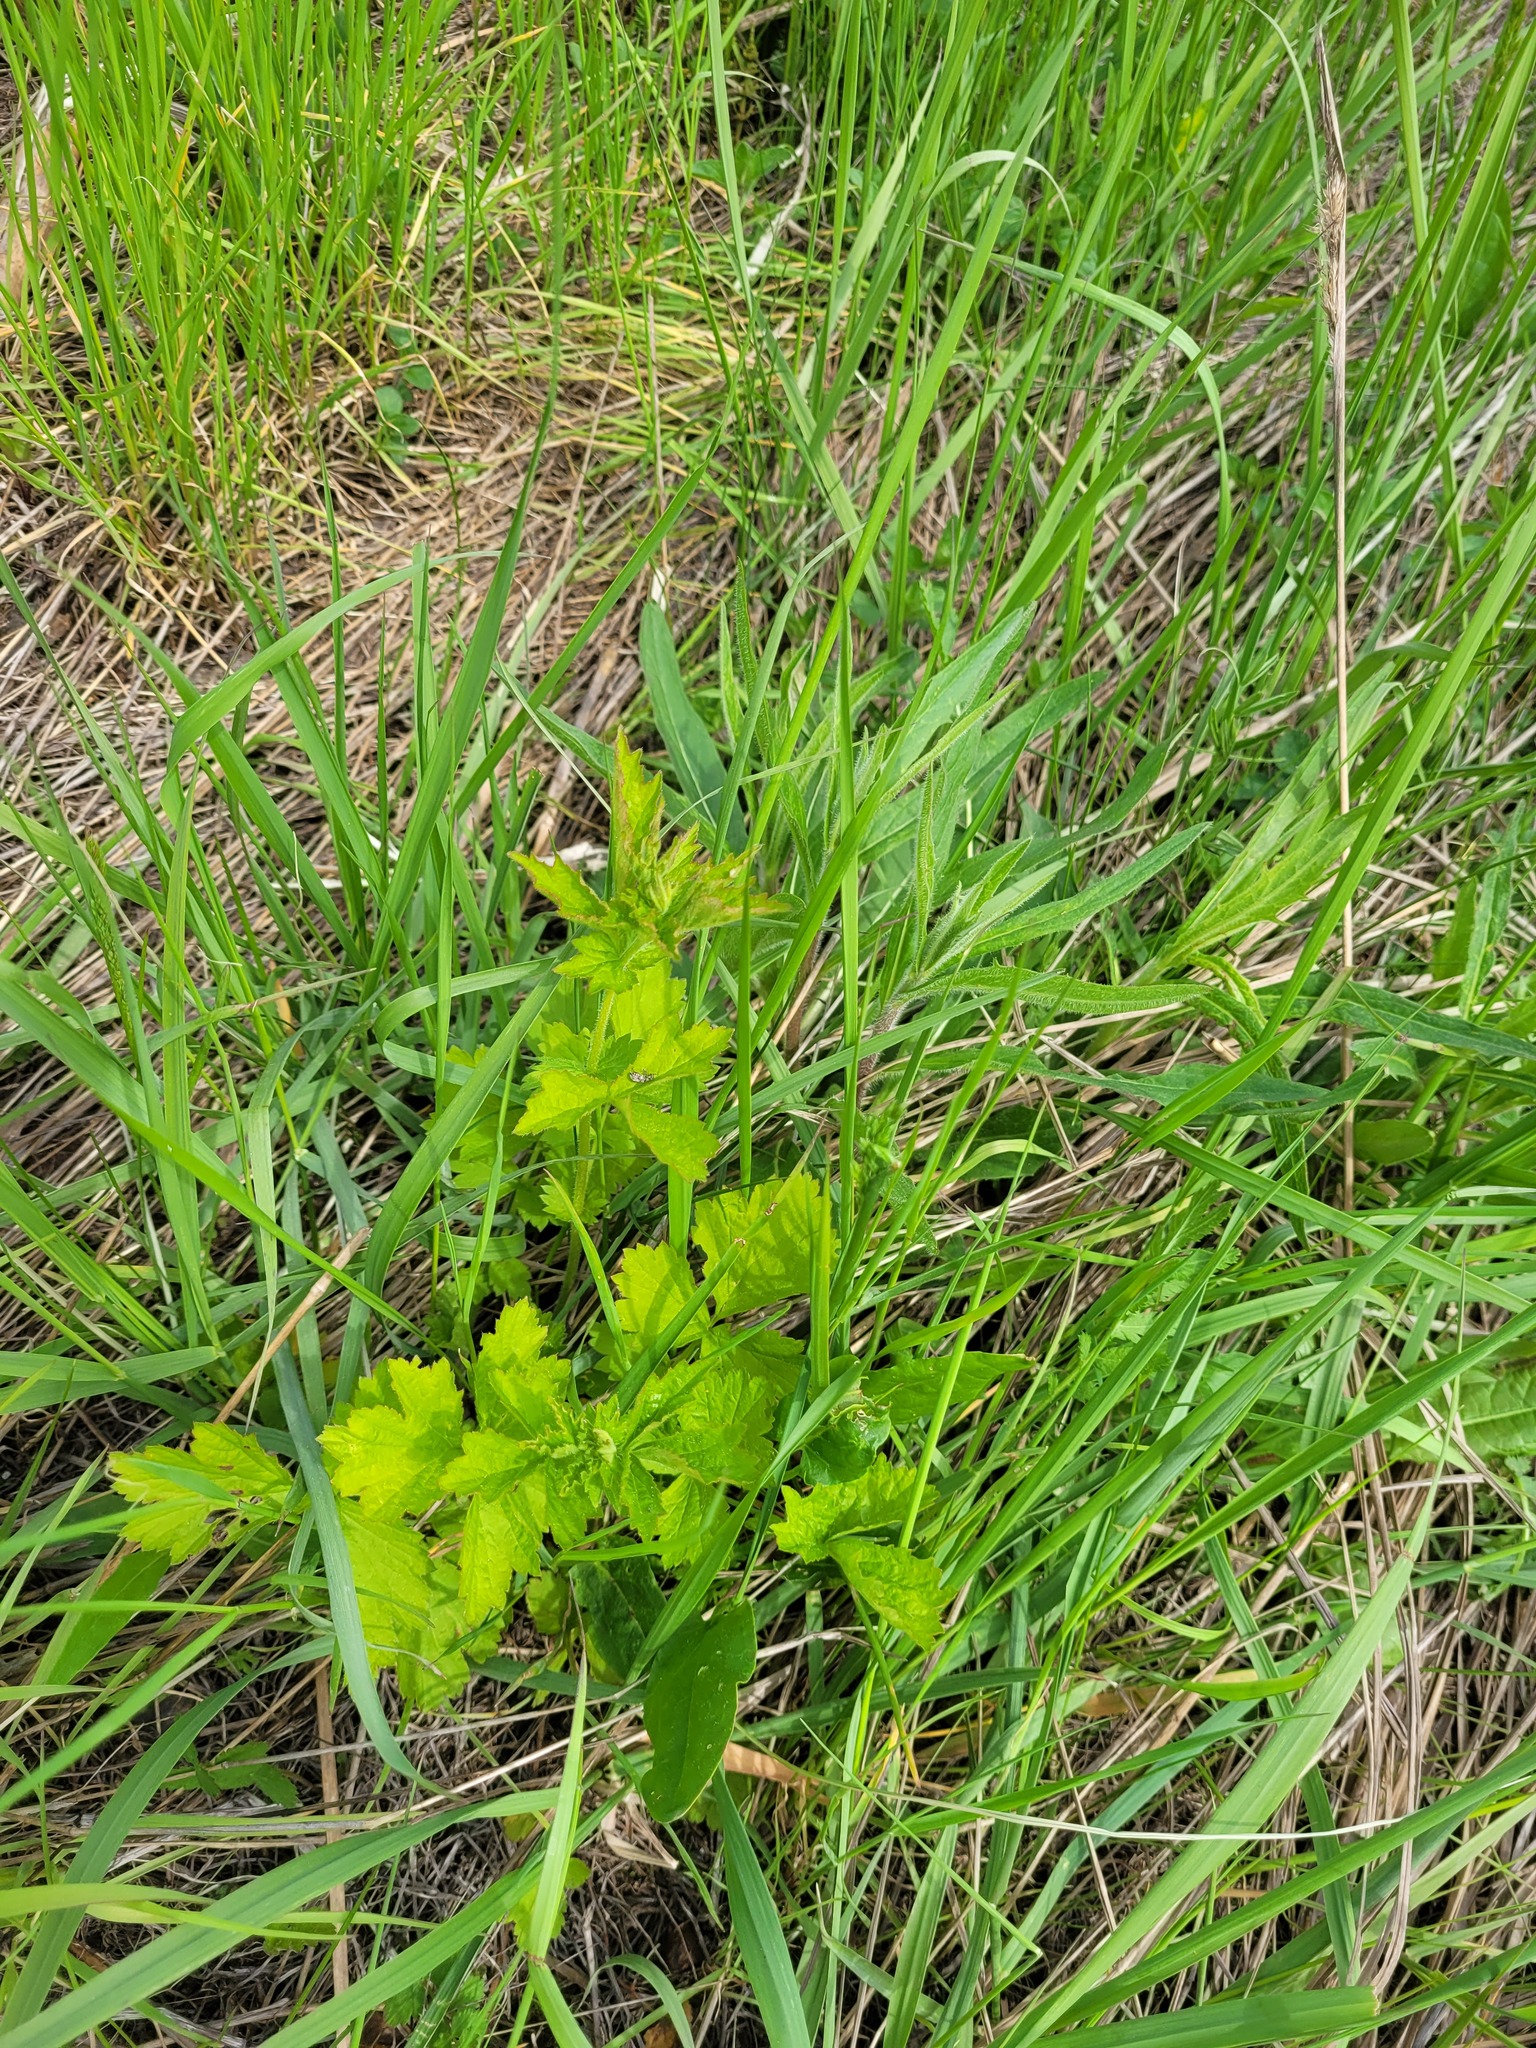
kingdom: Plantae
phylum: Tracheophyta
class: Magnoliopsida
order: Rosales
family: Rosaceae
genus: Geum
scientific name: Geum urbanum
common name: Wood avens
